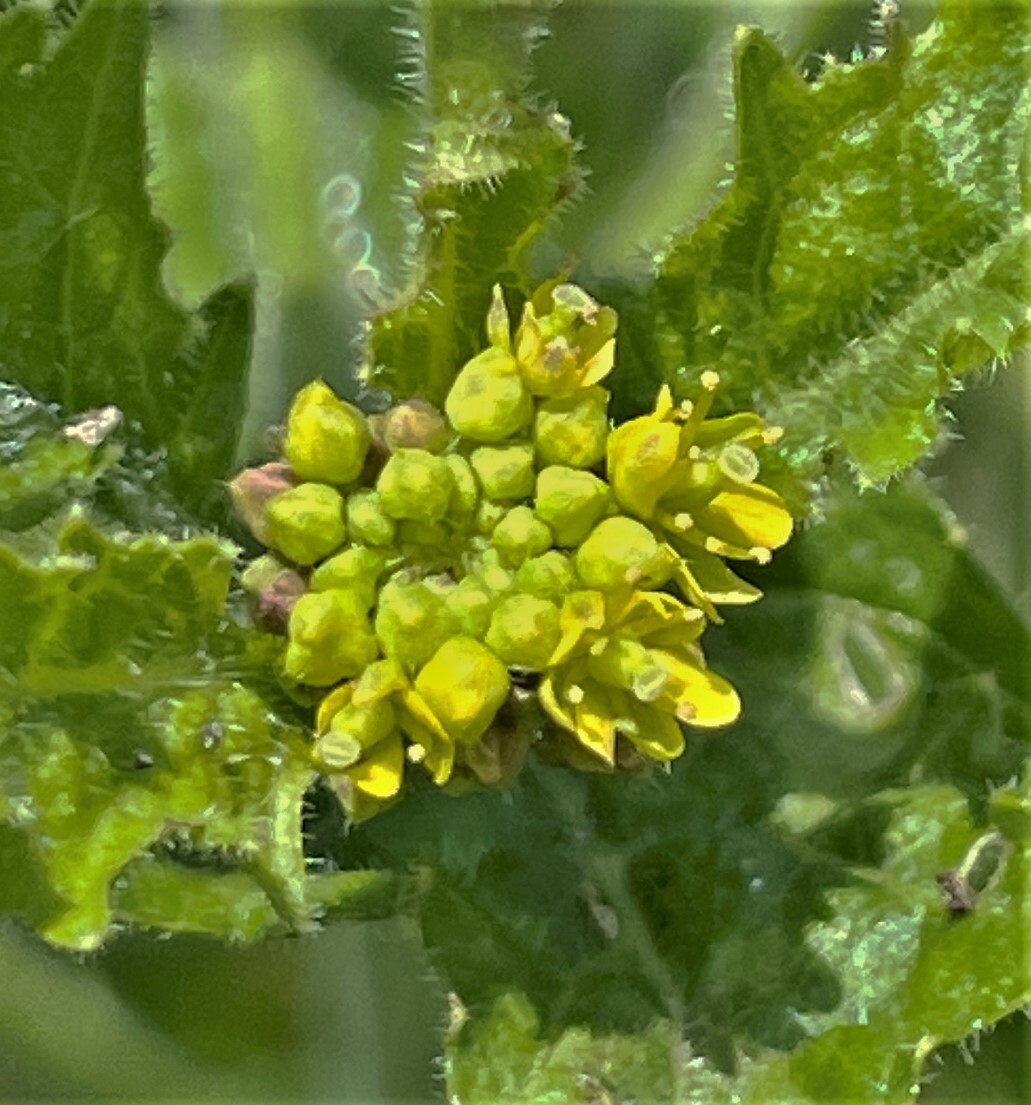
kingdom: Plantae
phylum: Tracheophyta
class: Magnoliopsida
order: Brassicales
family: Brassicaceae
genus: Rorippa
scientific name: Rorippa palustris
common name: Marsh yellow-cress
